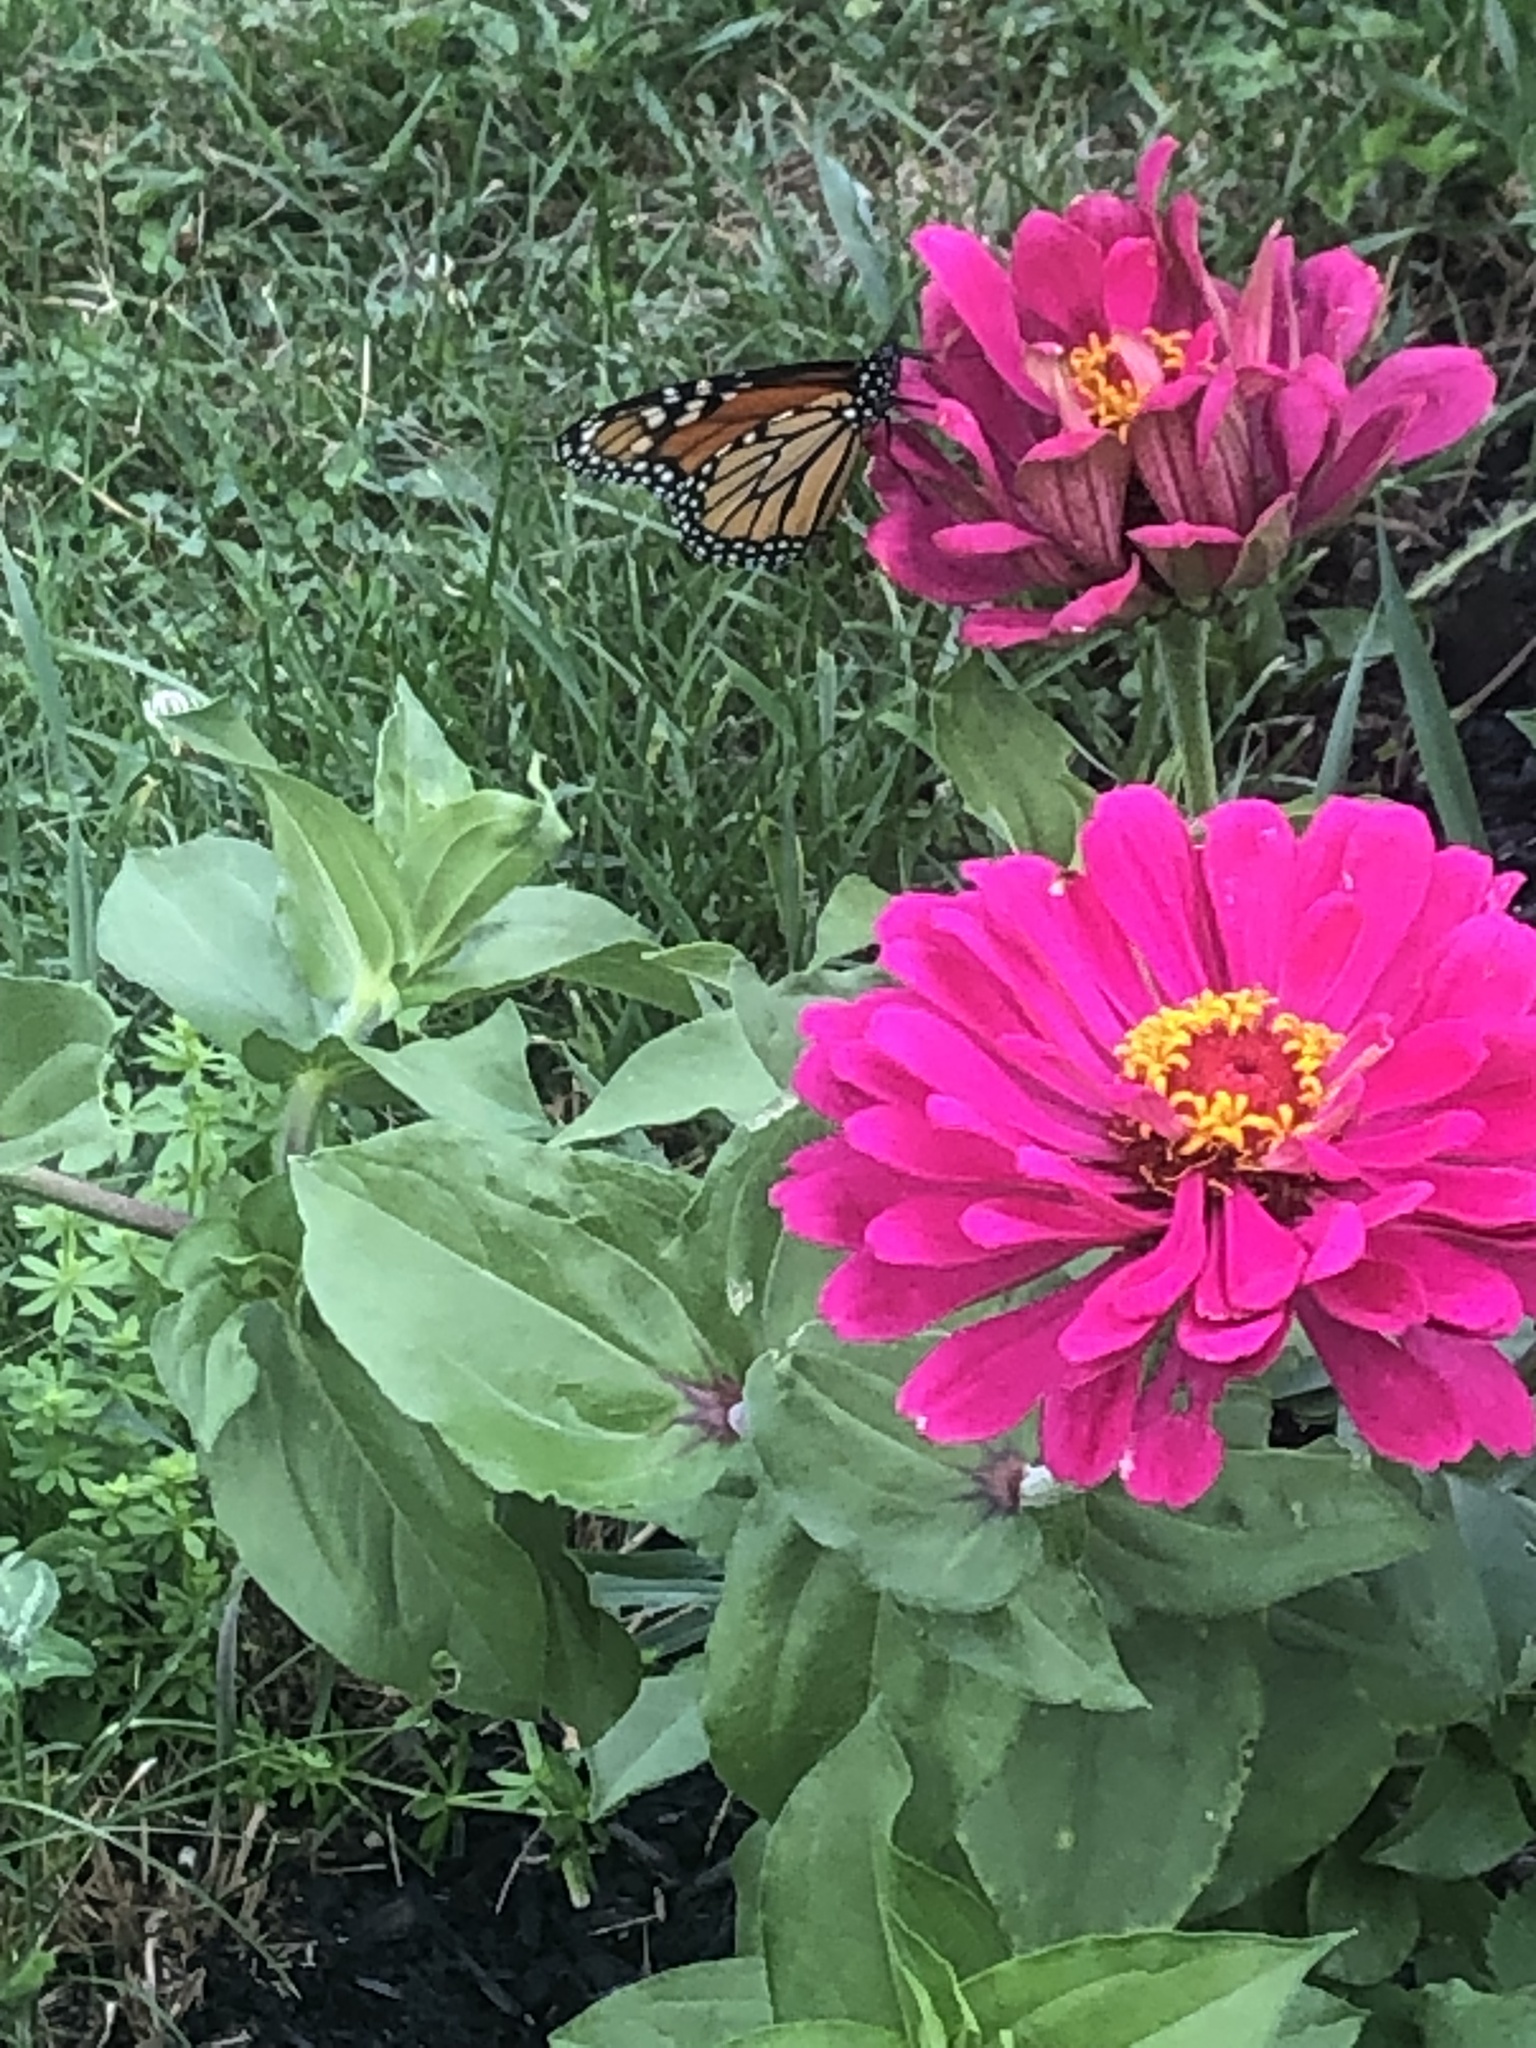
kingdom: Animalia
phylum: Arthropoda
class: Insecta
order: Lepidoptera
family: Nymphalidae
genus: Danaus
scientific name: Danaus plexippus
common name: Monarch
